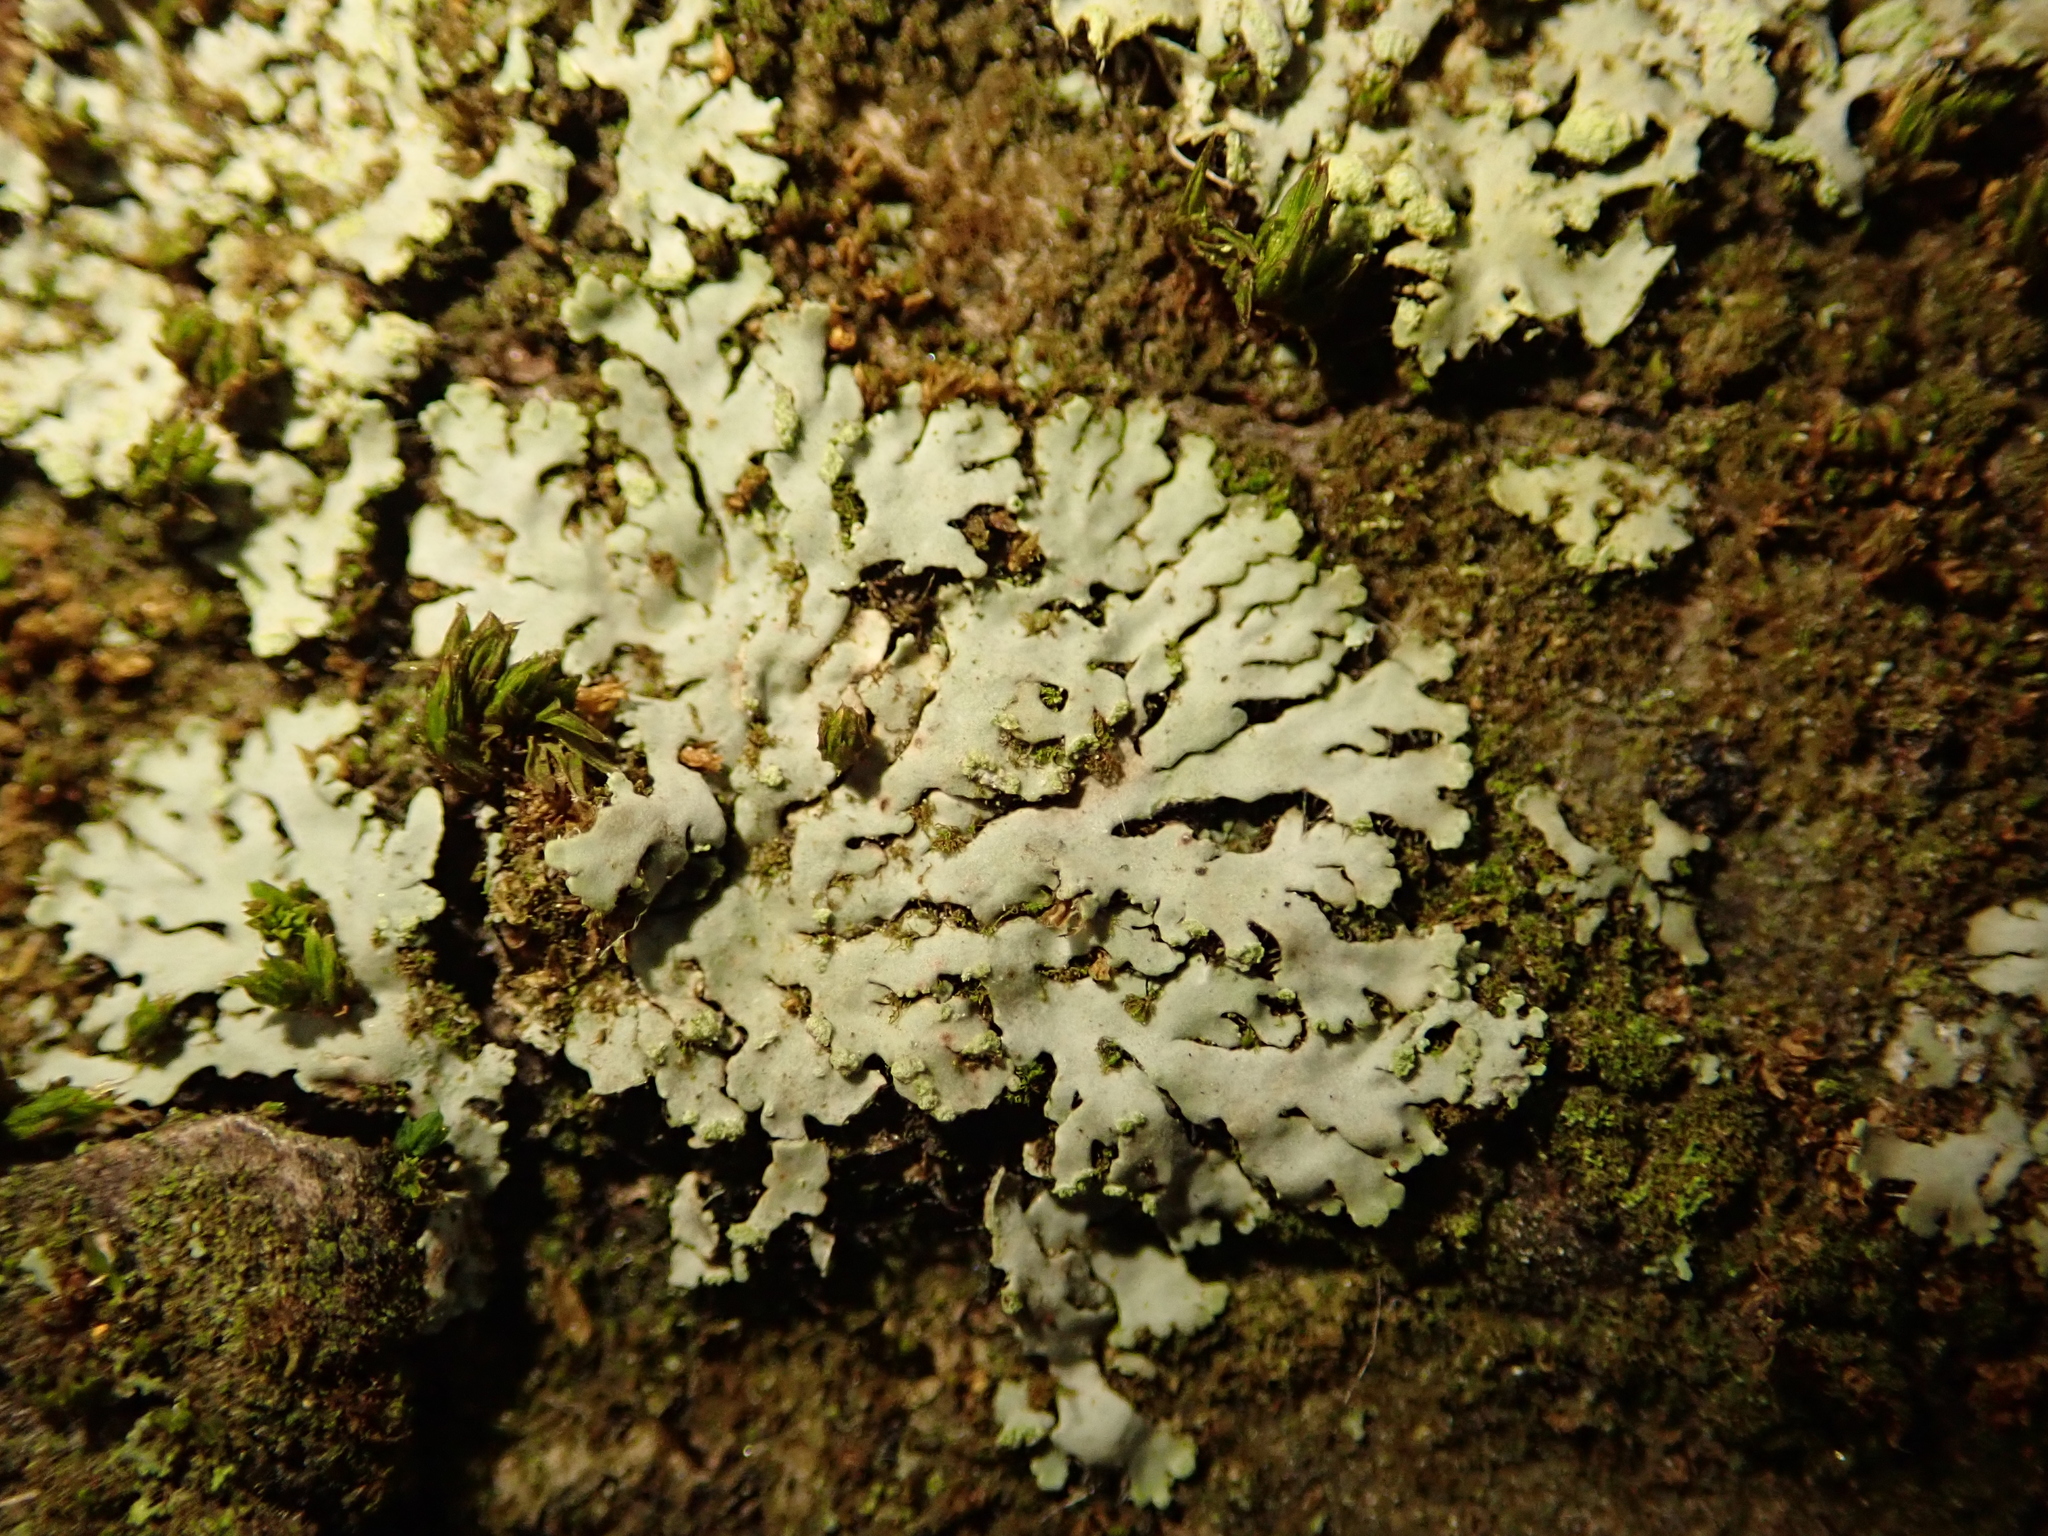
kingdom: Fungi
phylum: Ascomycota
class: Lecanoromycetes
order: Caliciales
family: Physciaceae
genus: Phaeophyscia
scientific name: Phaeophyscia orbicularis
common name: Mealy shadow lichen
